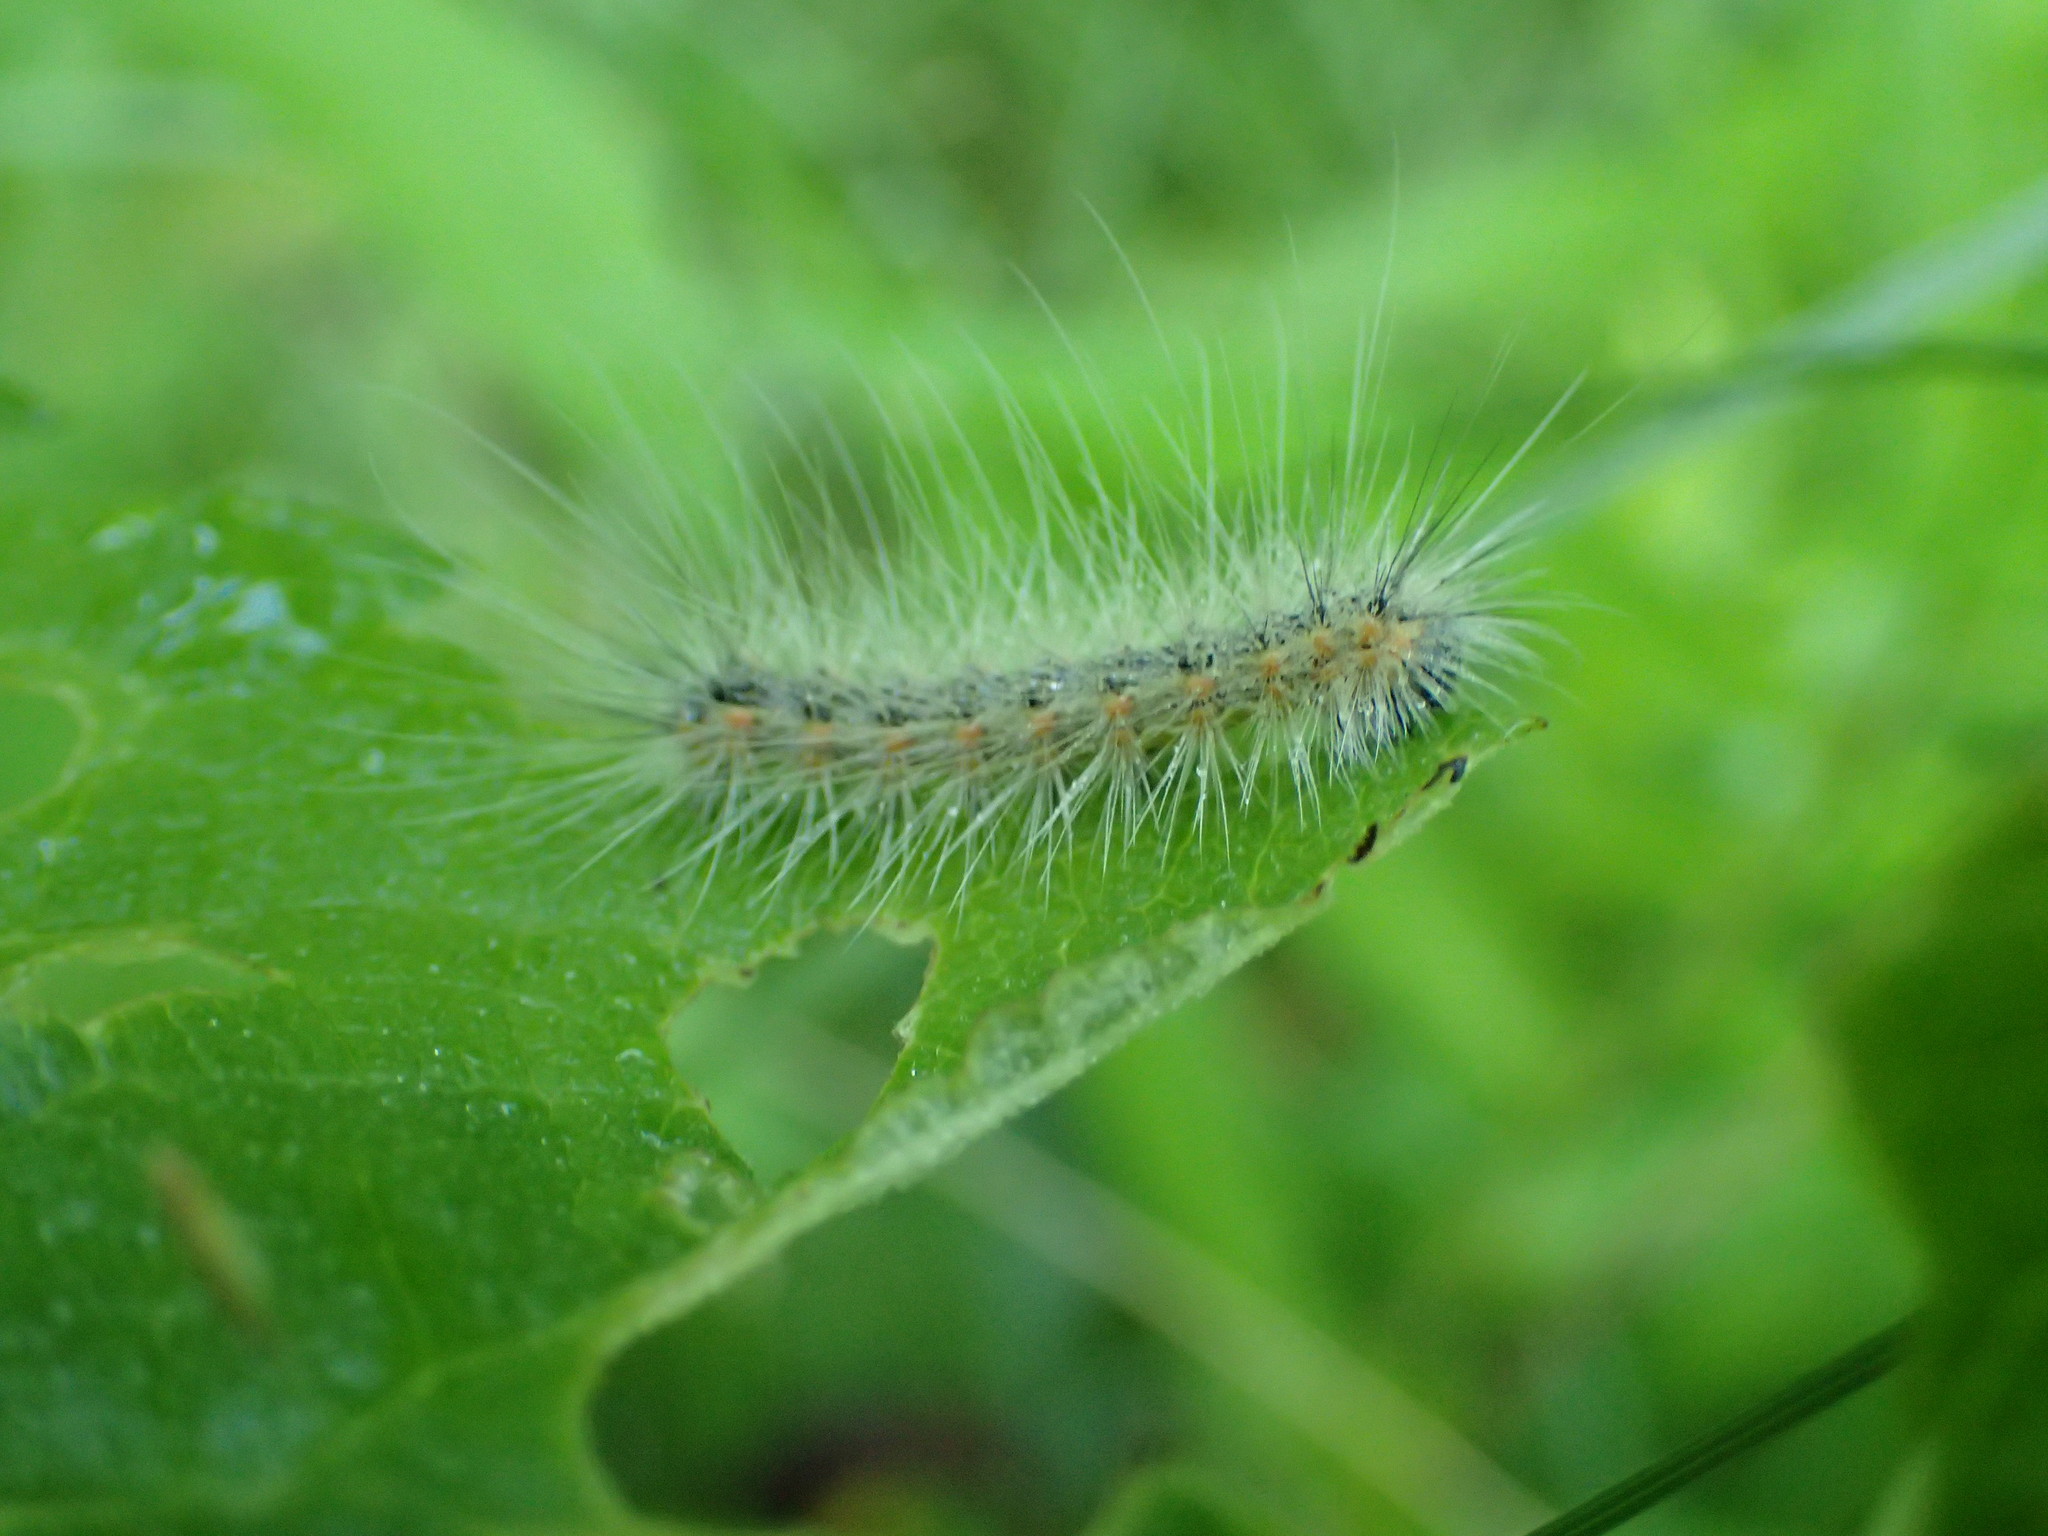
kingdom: Animalia
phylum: Arthropoda
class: Insecta
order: Lepidoptera
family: Erebidae
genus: Hyphantria
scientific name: Hyphantria cunea
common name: American white moth
